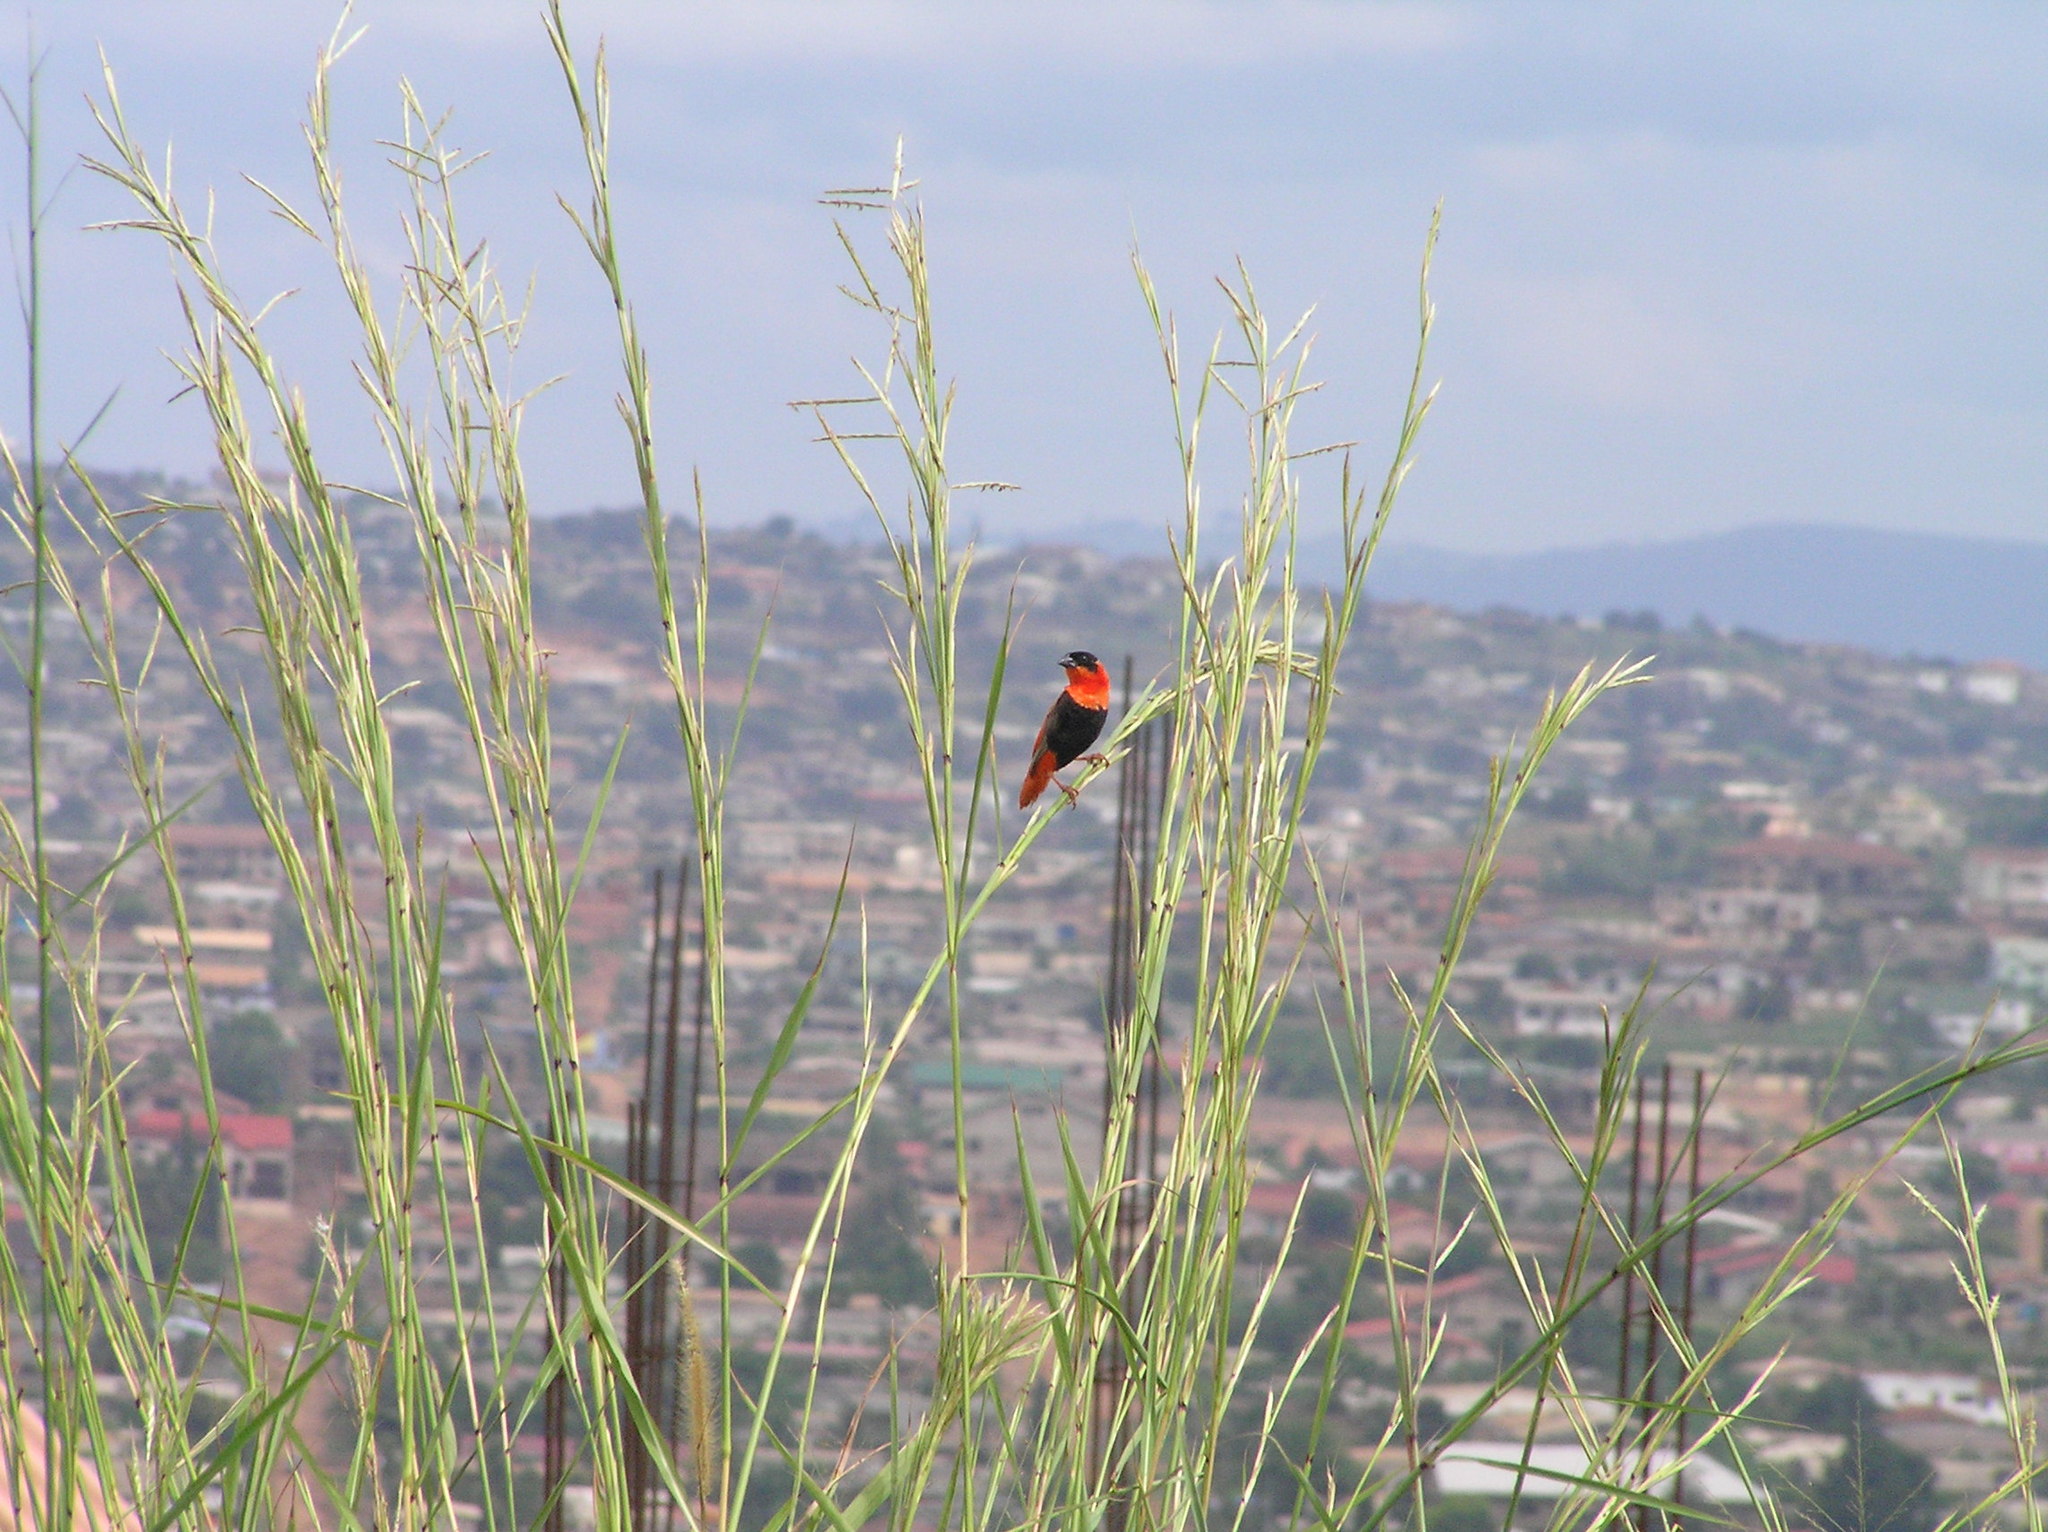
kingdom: Animalia
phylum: Chordata
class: Aves
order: Passeriformes
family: Ploceidae
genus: Euplectes
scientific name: Euplectes franciscanus
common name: Northern red bishop
